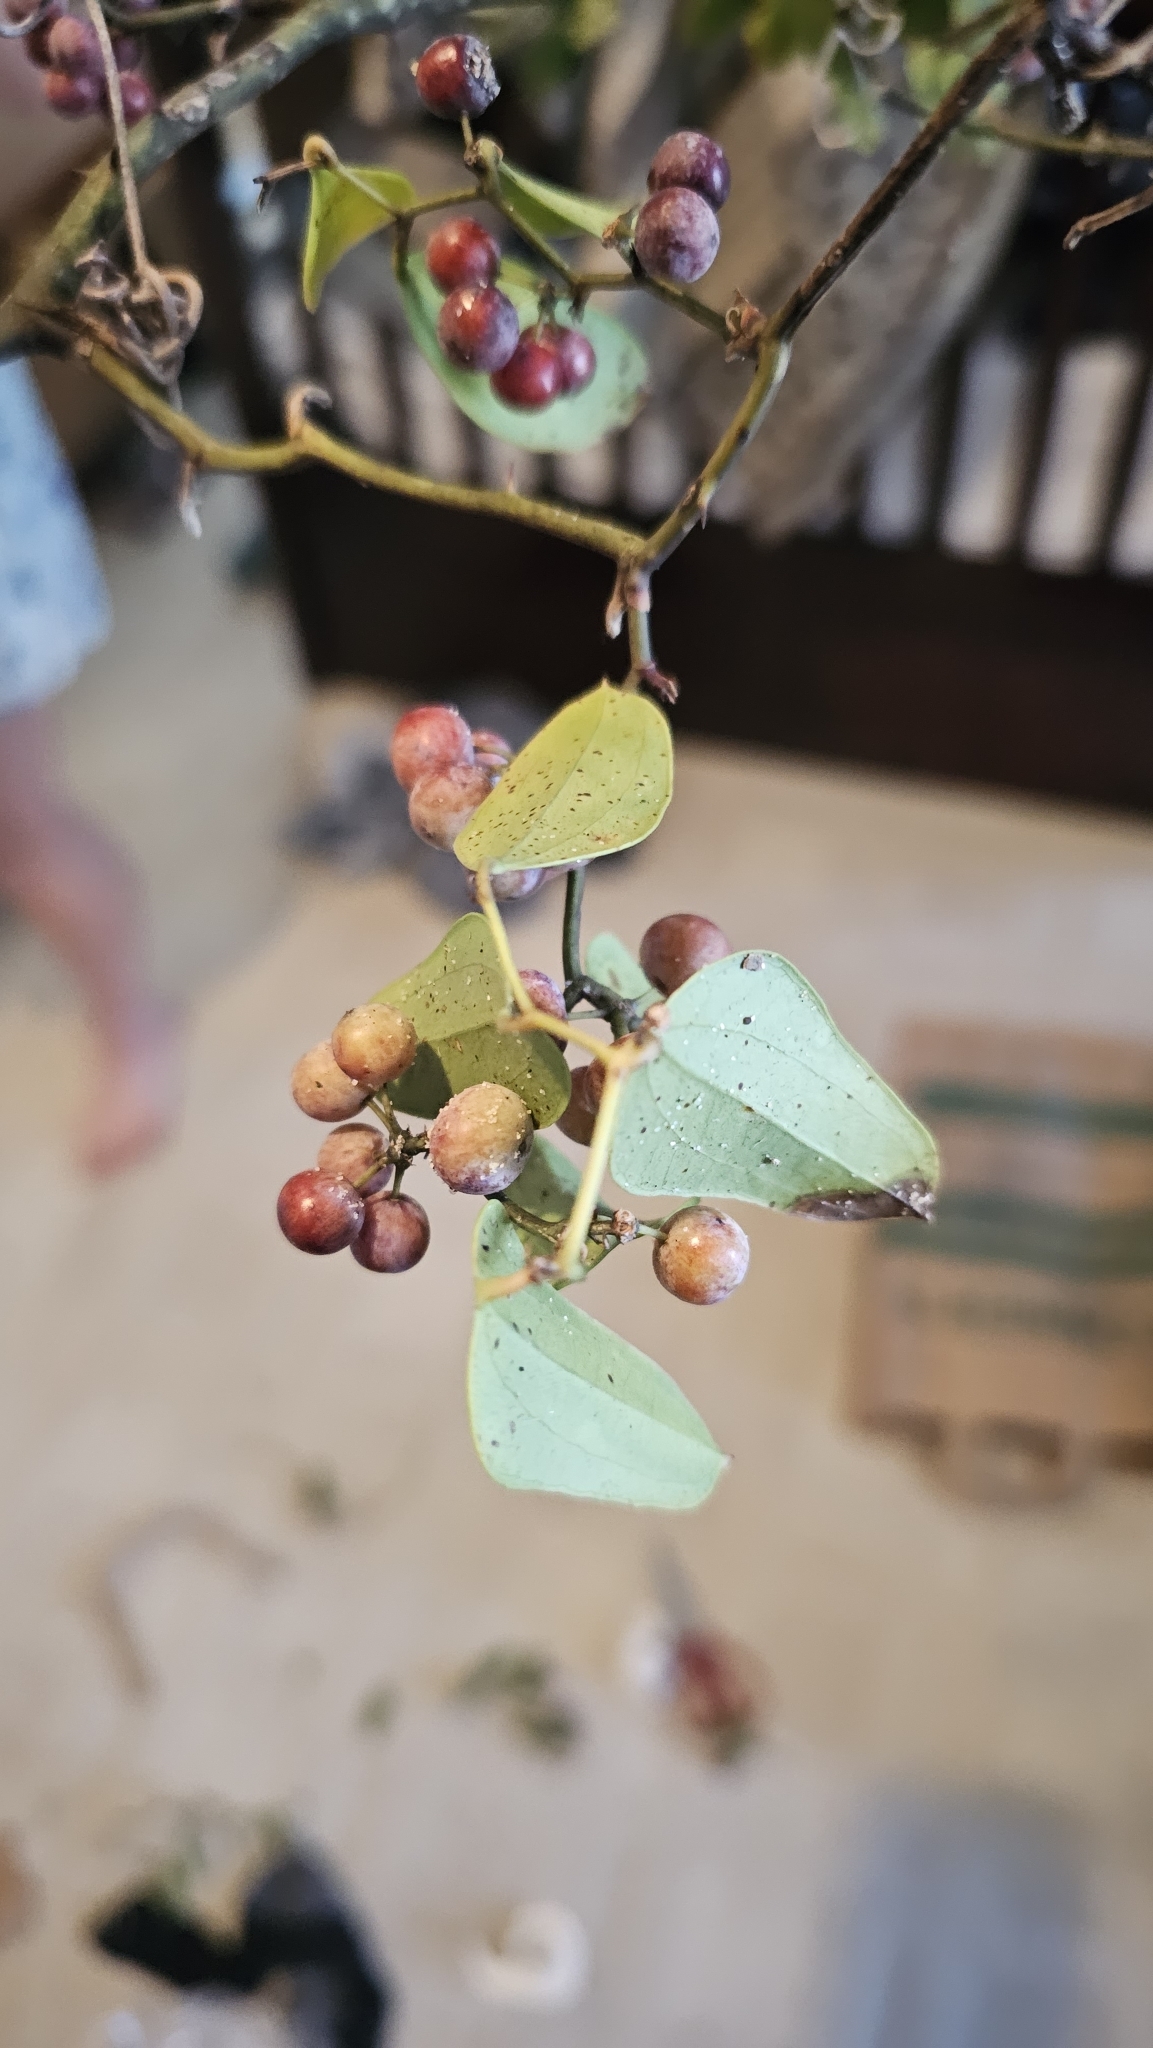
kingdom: Plantae
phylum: Tracheophyta
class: Liliopsida
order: Liliales
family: Smilacaceae
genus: Smilax
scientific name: Smilax auriculata
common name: Wild bamboo
